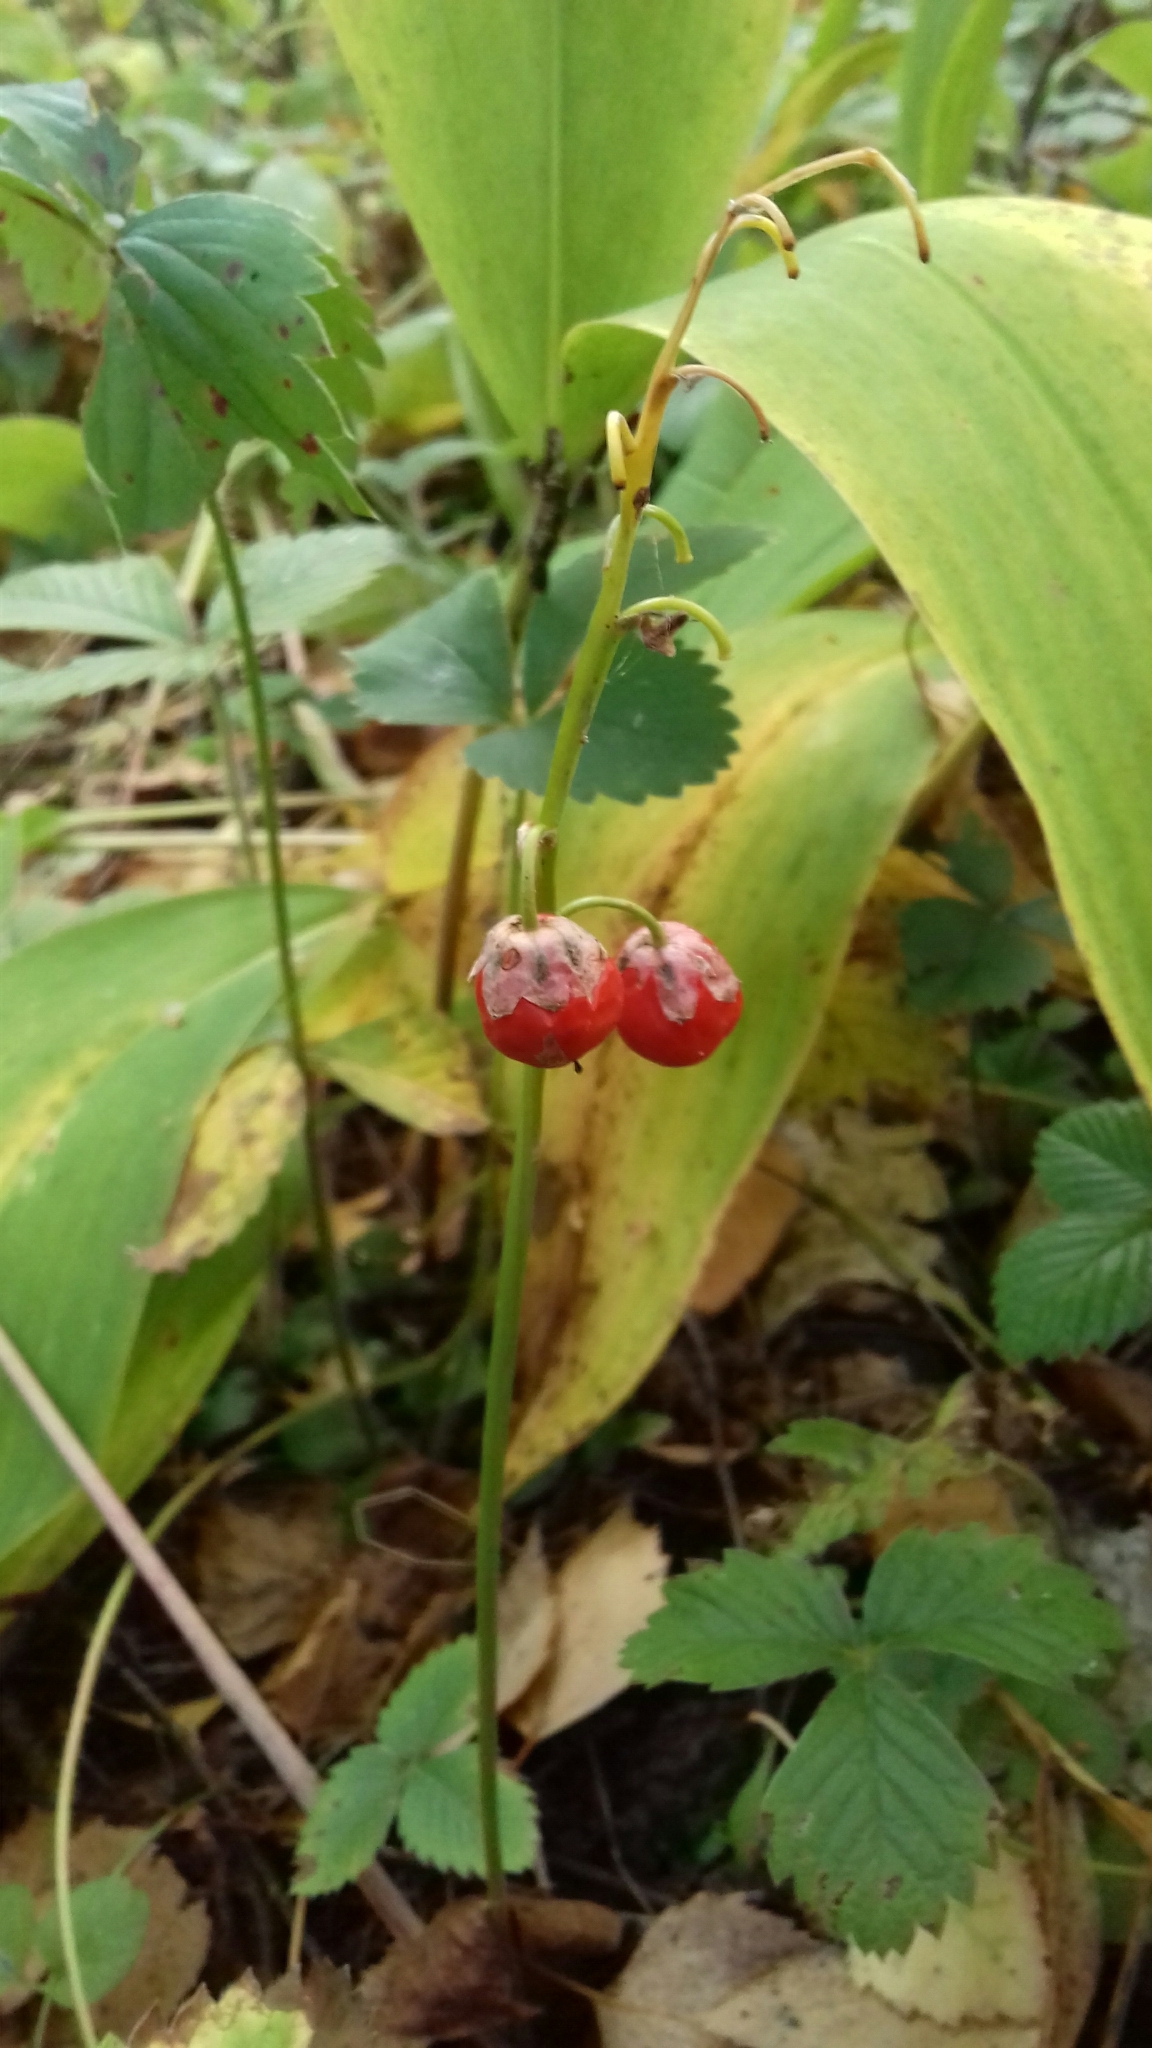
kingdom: Plantae
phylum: Tracheophyta
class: Liliopsida
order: Asparagales
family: Asparagaceae
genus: Convallaria
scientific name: Convallaria majalis
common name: Lily-of-the-valley
